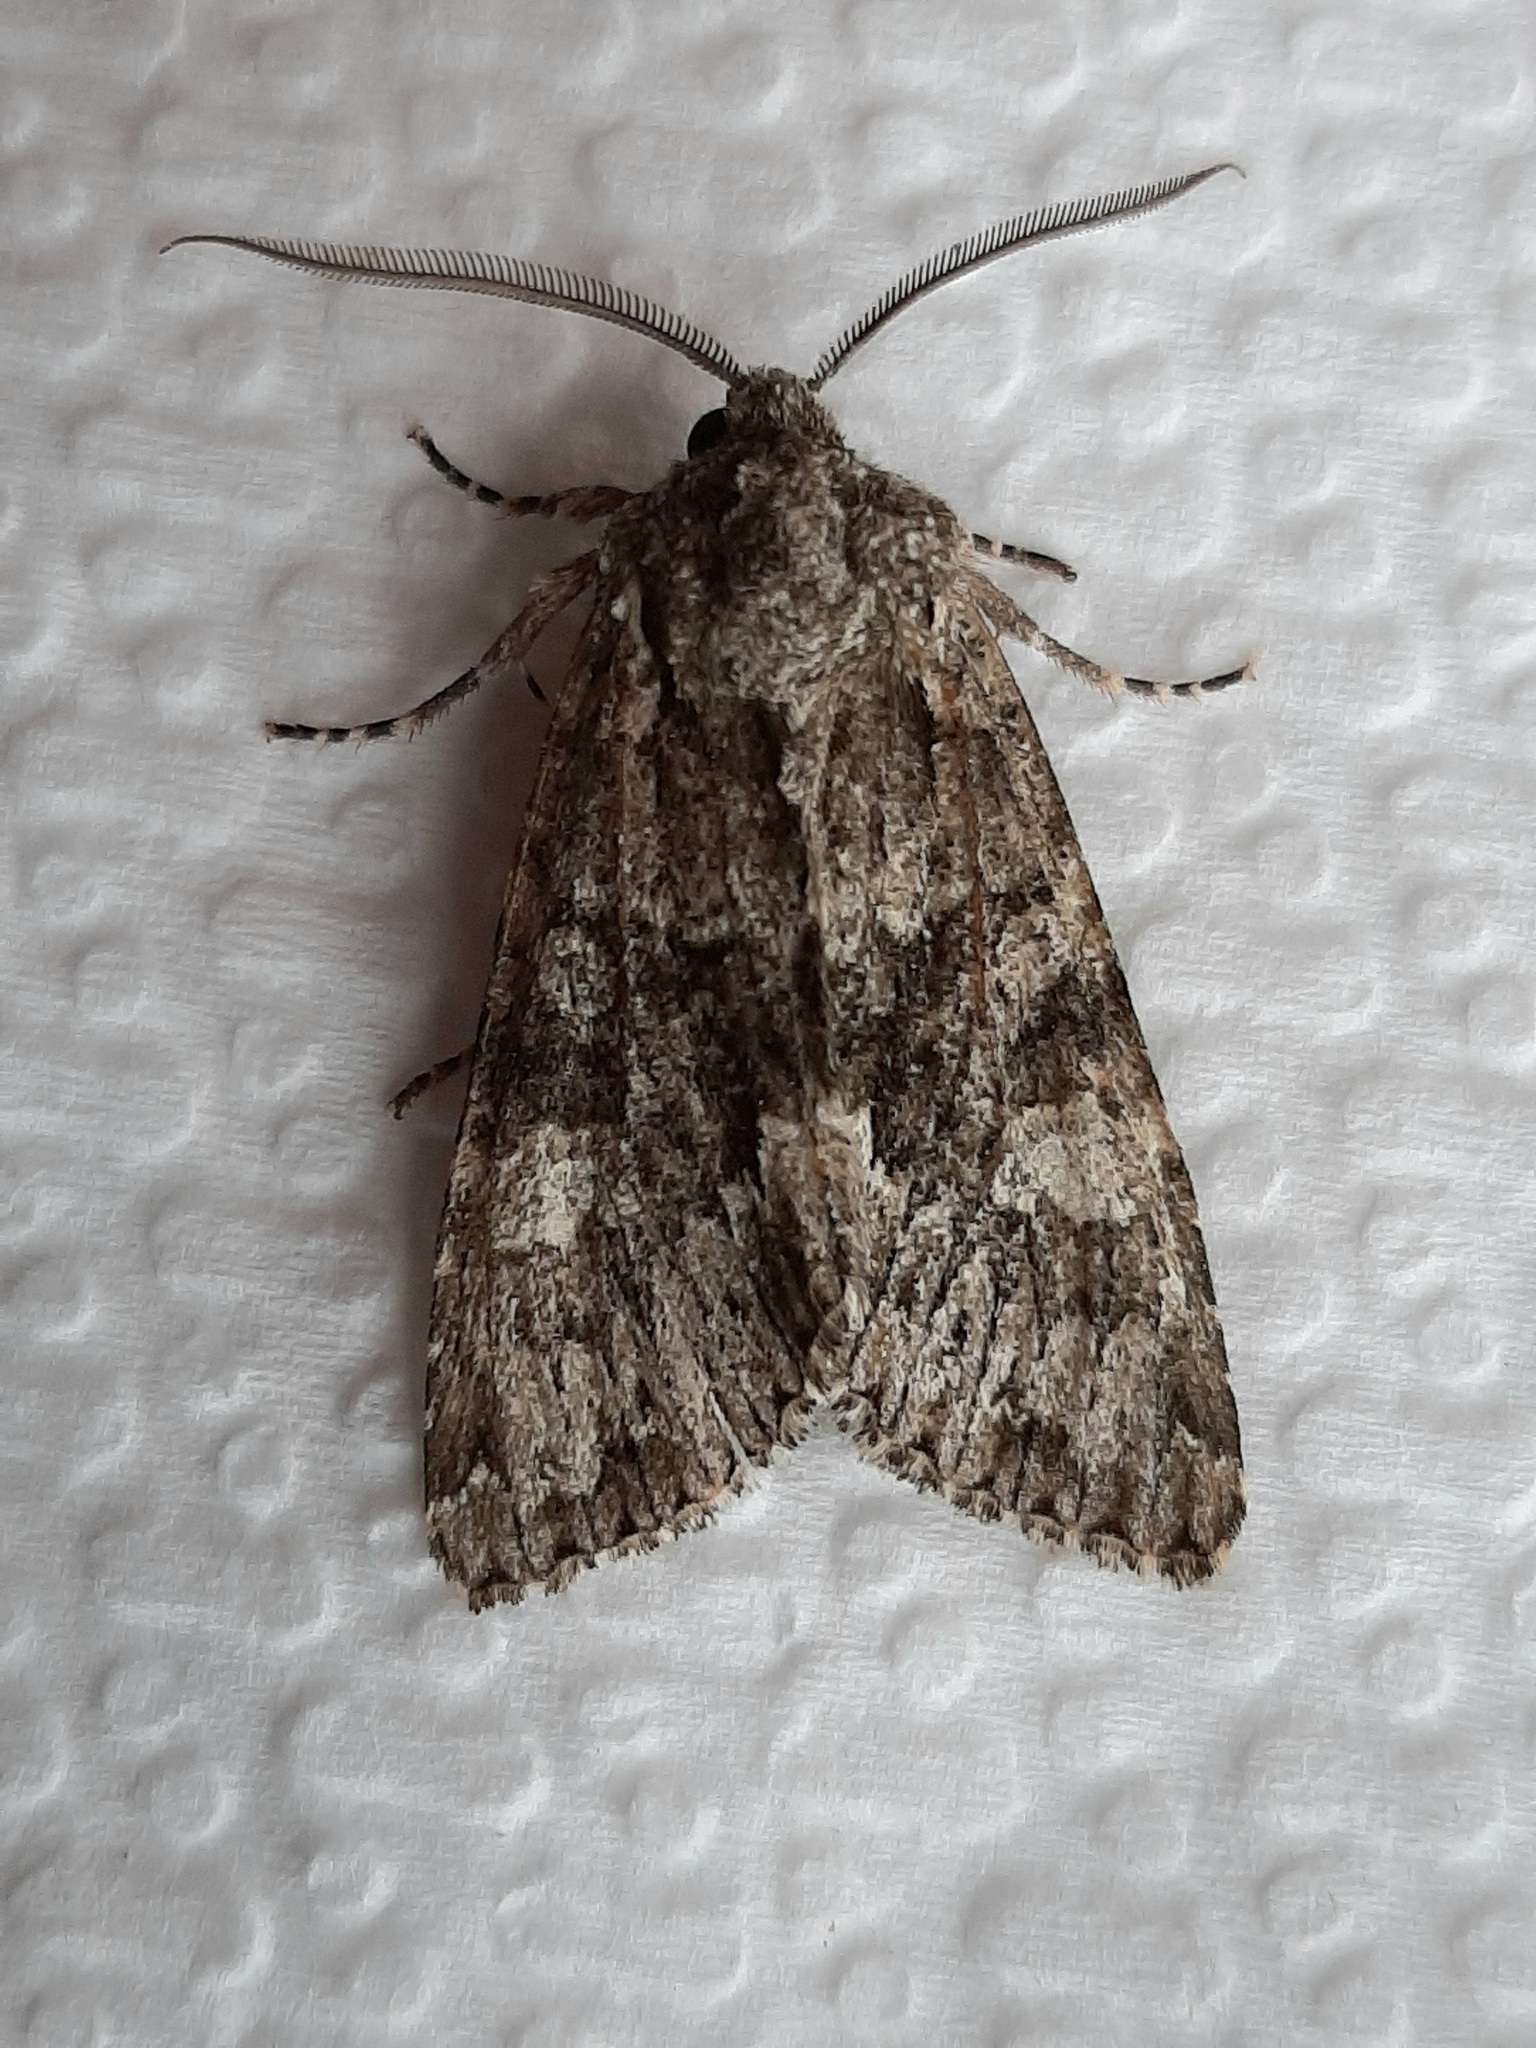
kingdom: Animalia
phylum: Arthropoda
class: Insecta
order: Lepidoptera
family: Noctuidae
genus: Pachypolia
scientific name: Pachypolia atricornis
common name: Autumnal noctuid moth
